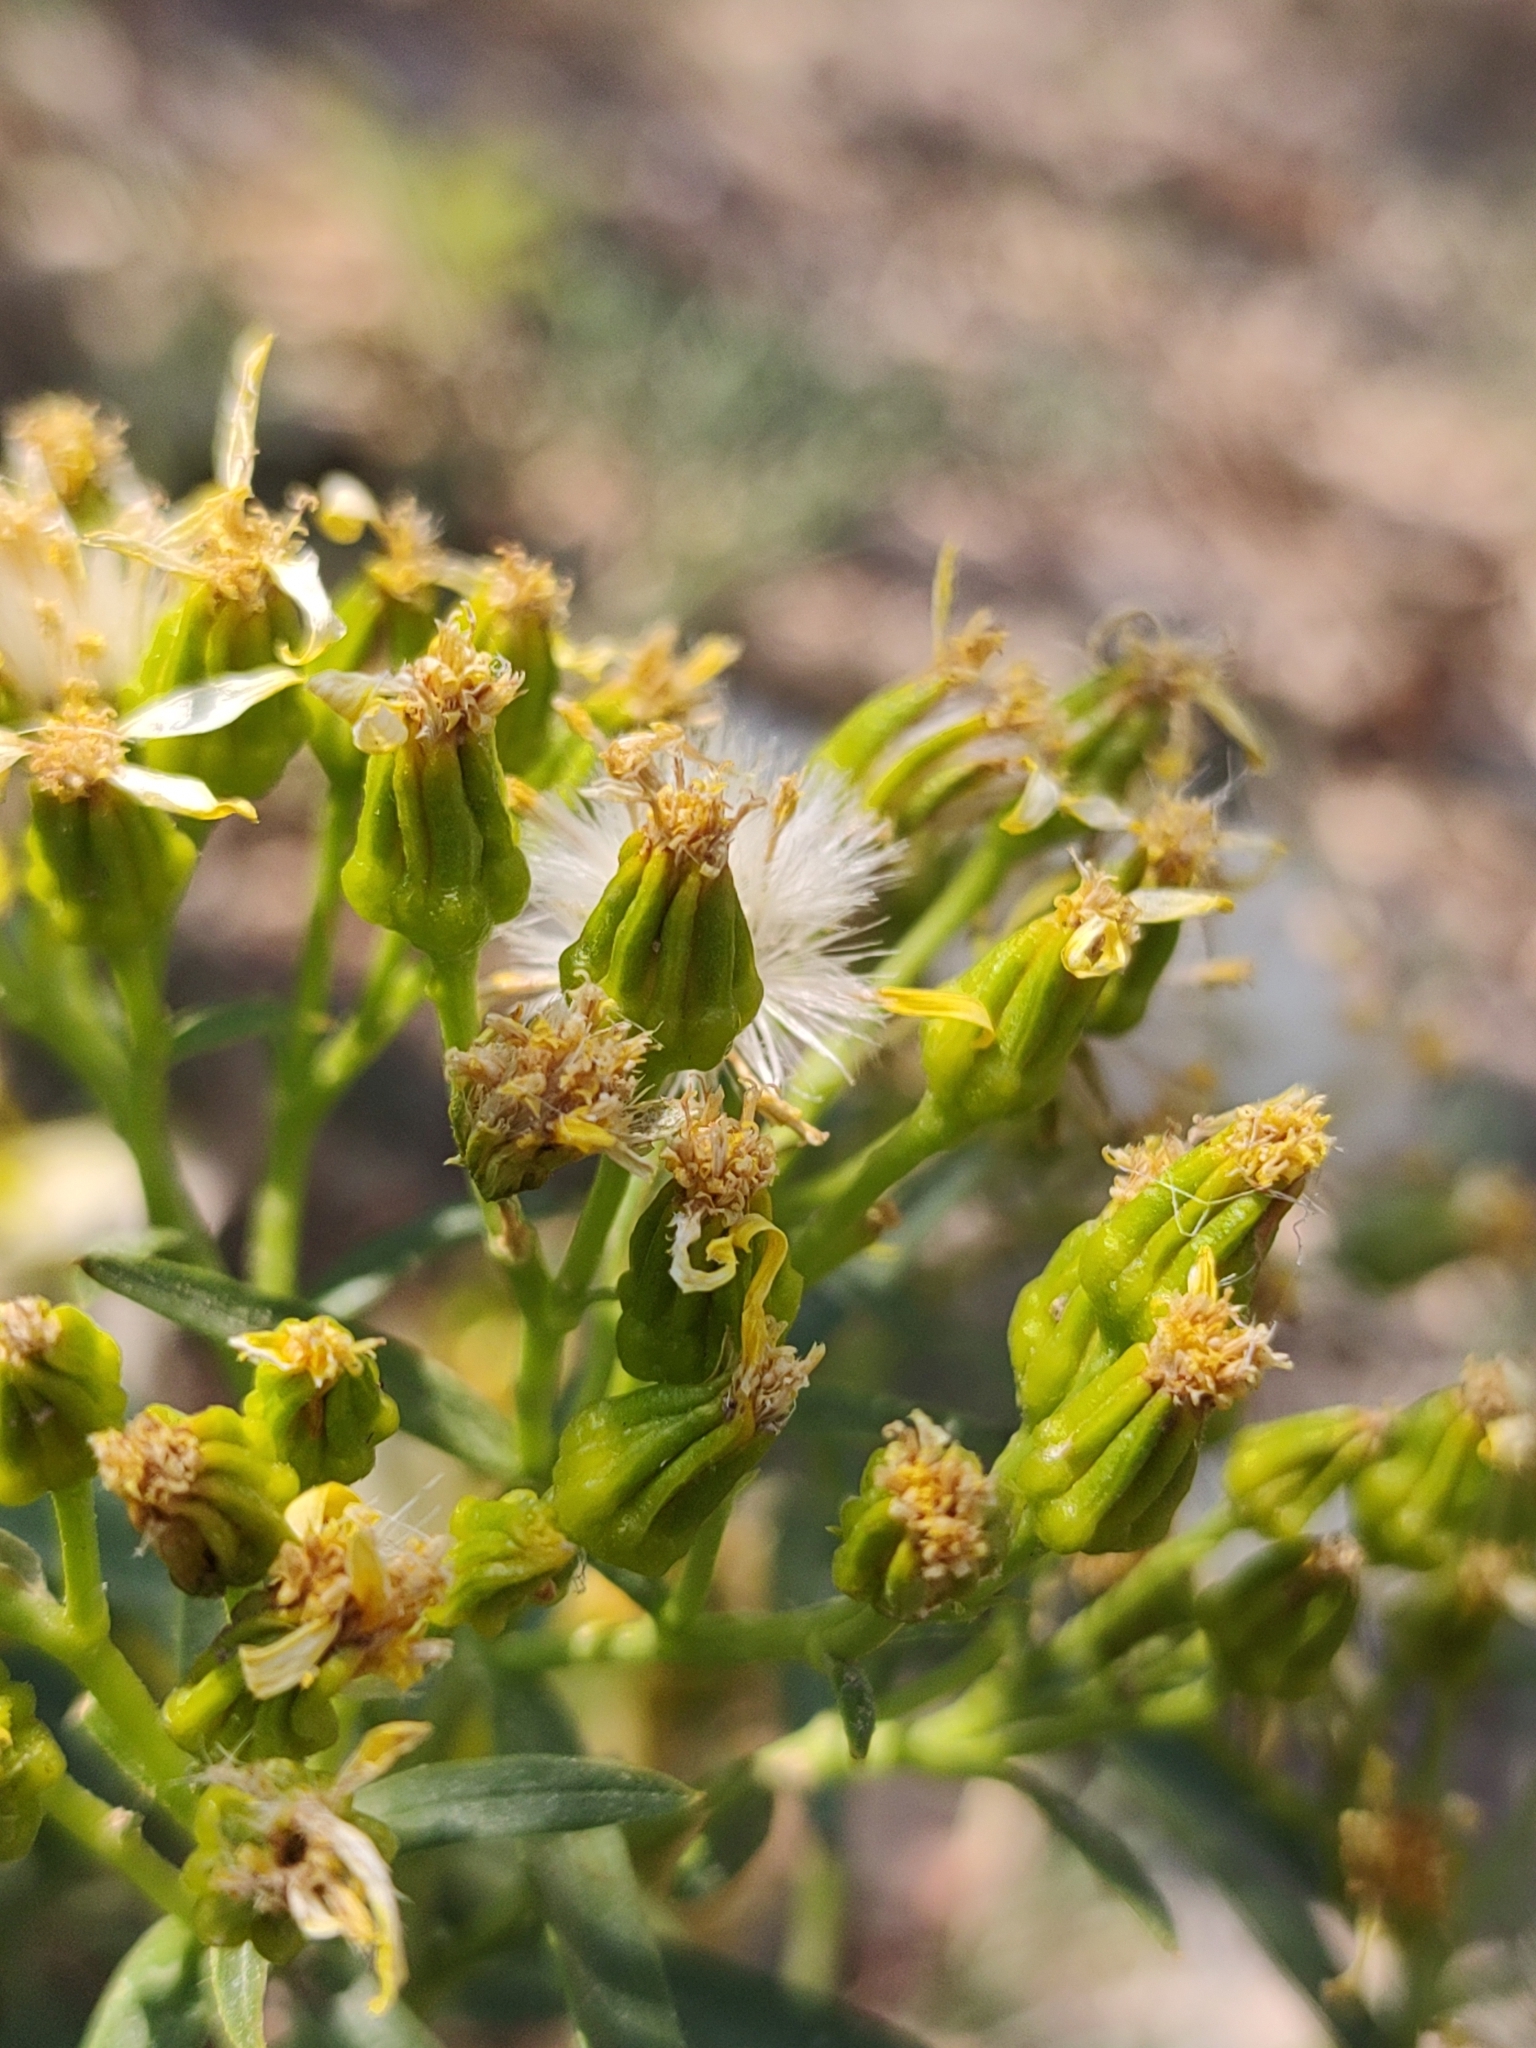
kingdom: Plantae
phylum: Tracheophyta
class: Magnoliopsida
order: Asterales
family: Asteraceae
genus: Barkleyanthus
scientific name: Barkleyanthus salicifolius
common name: Willow ragwort
